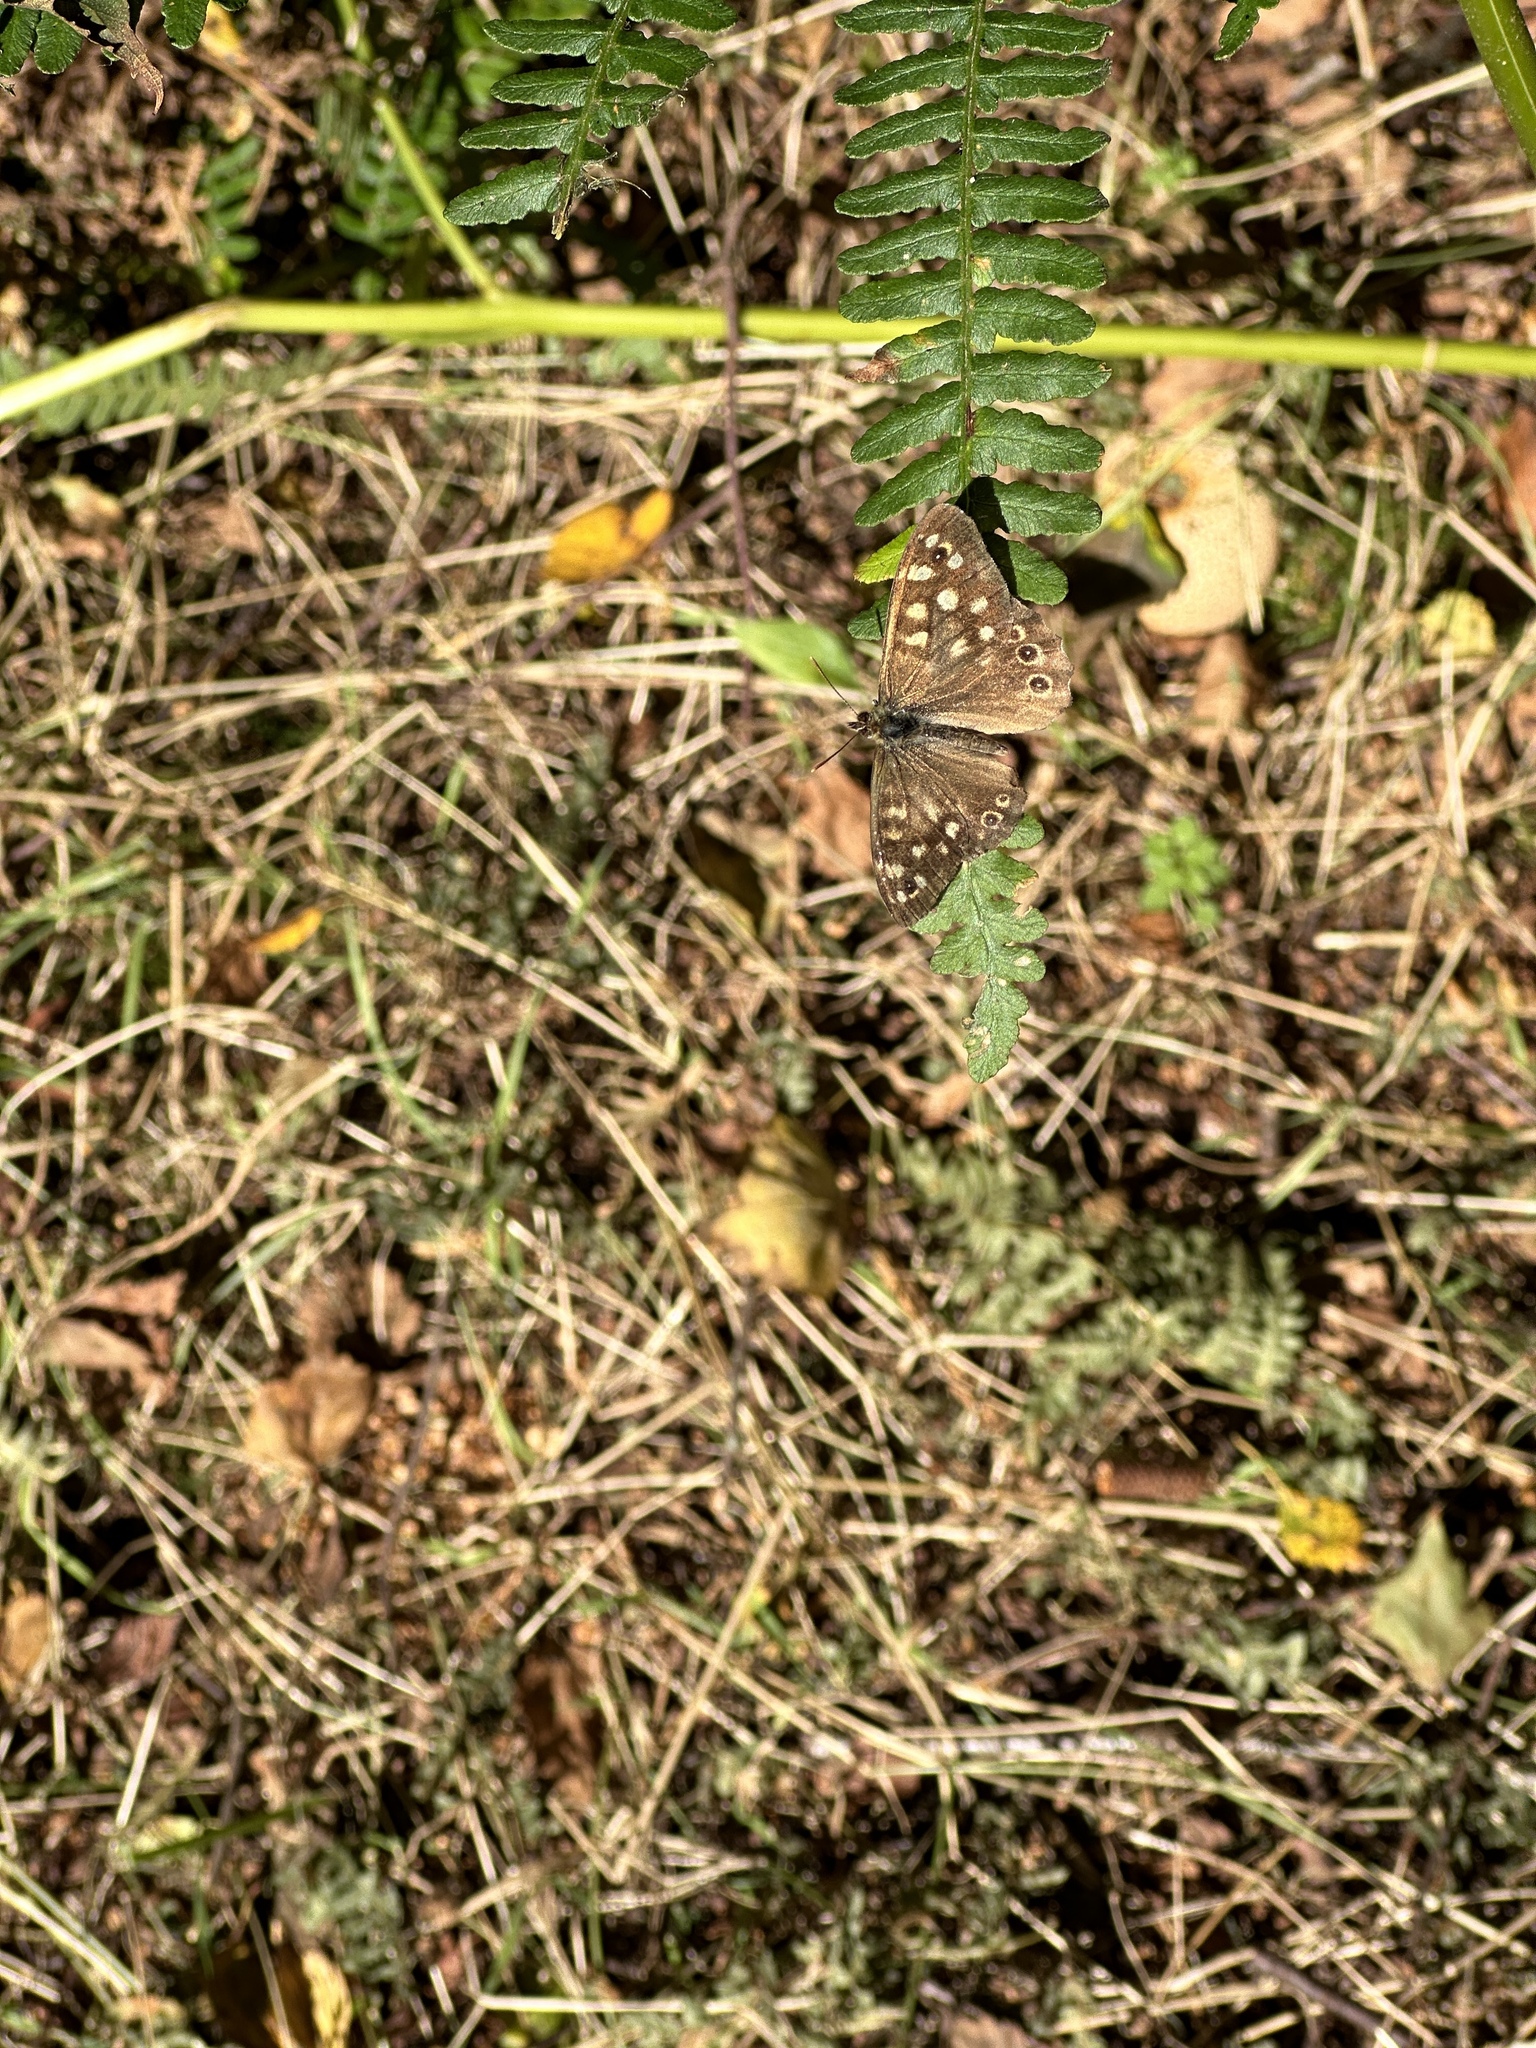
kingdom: Animalia
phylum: Arthropoda
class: Insecta
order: Lepidoptera
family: Nymphalidae
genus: Pararge
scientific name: Pararge aegeria
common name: Speckled wood
